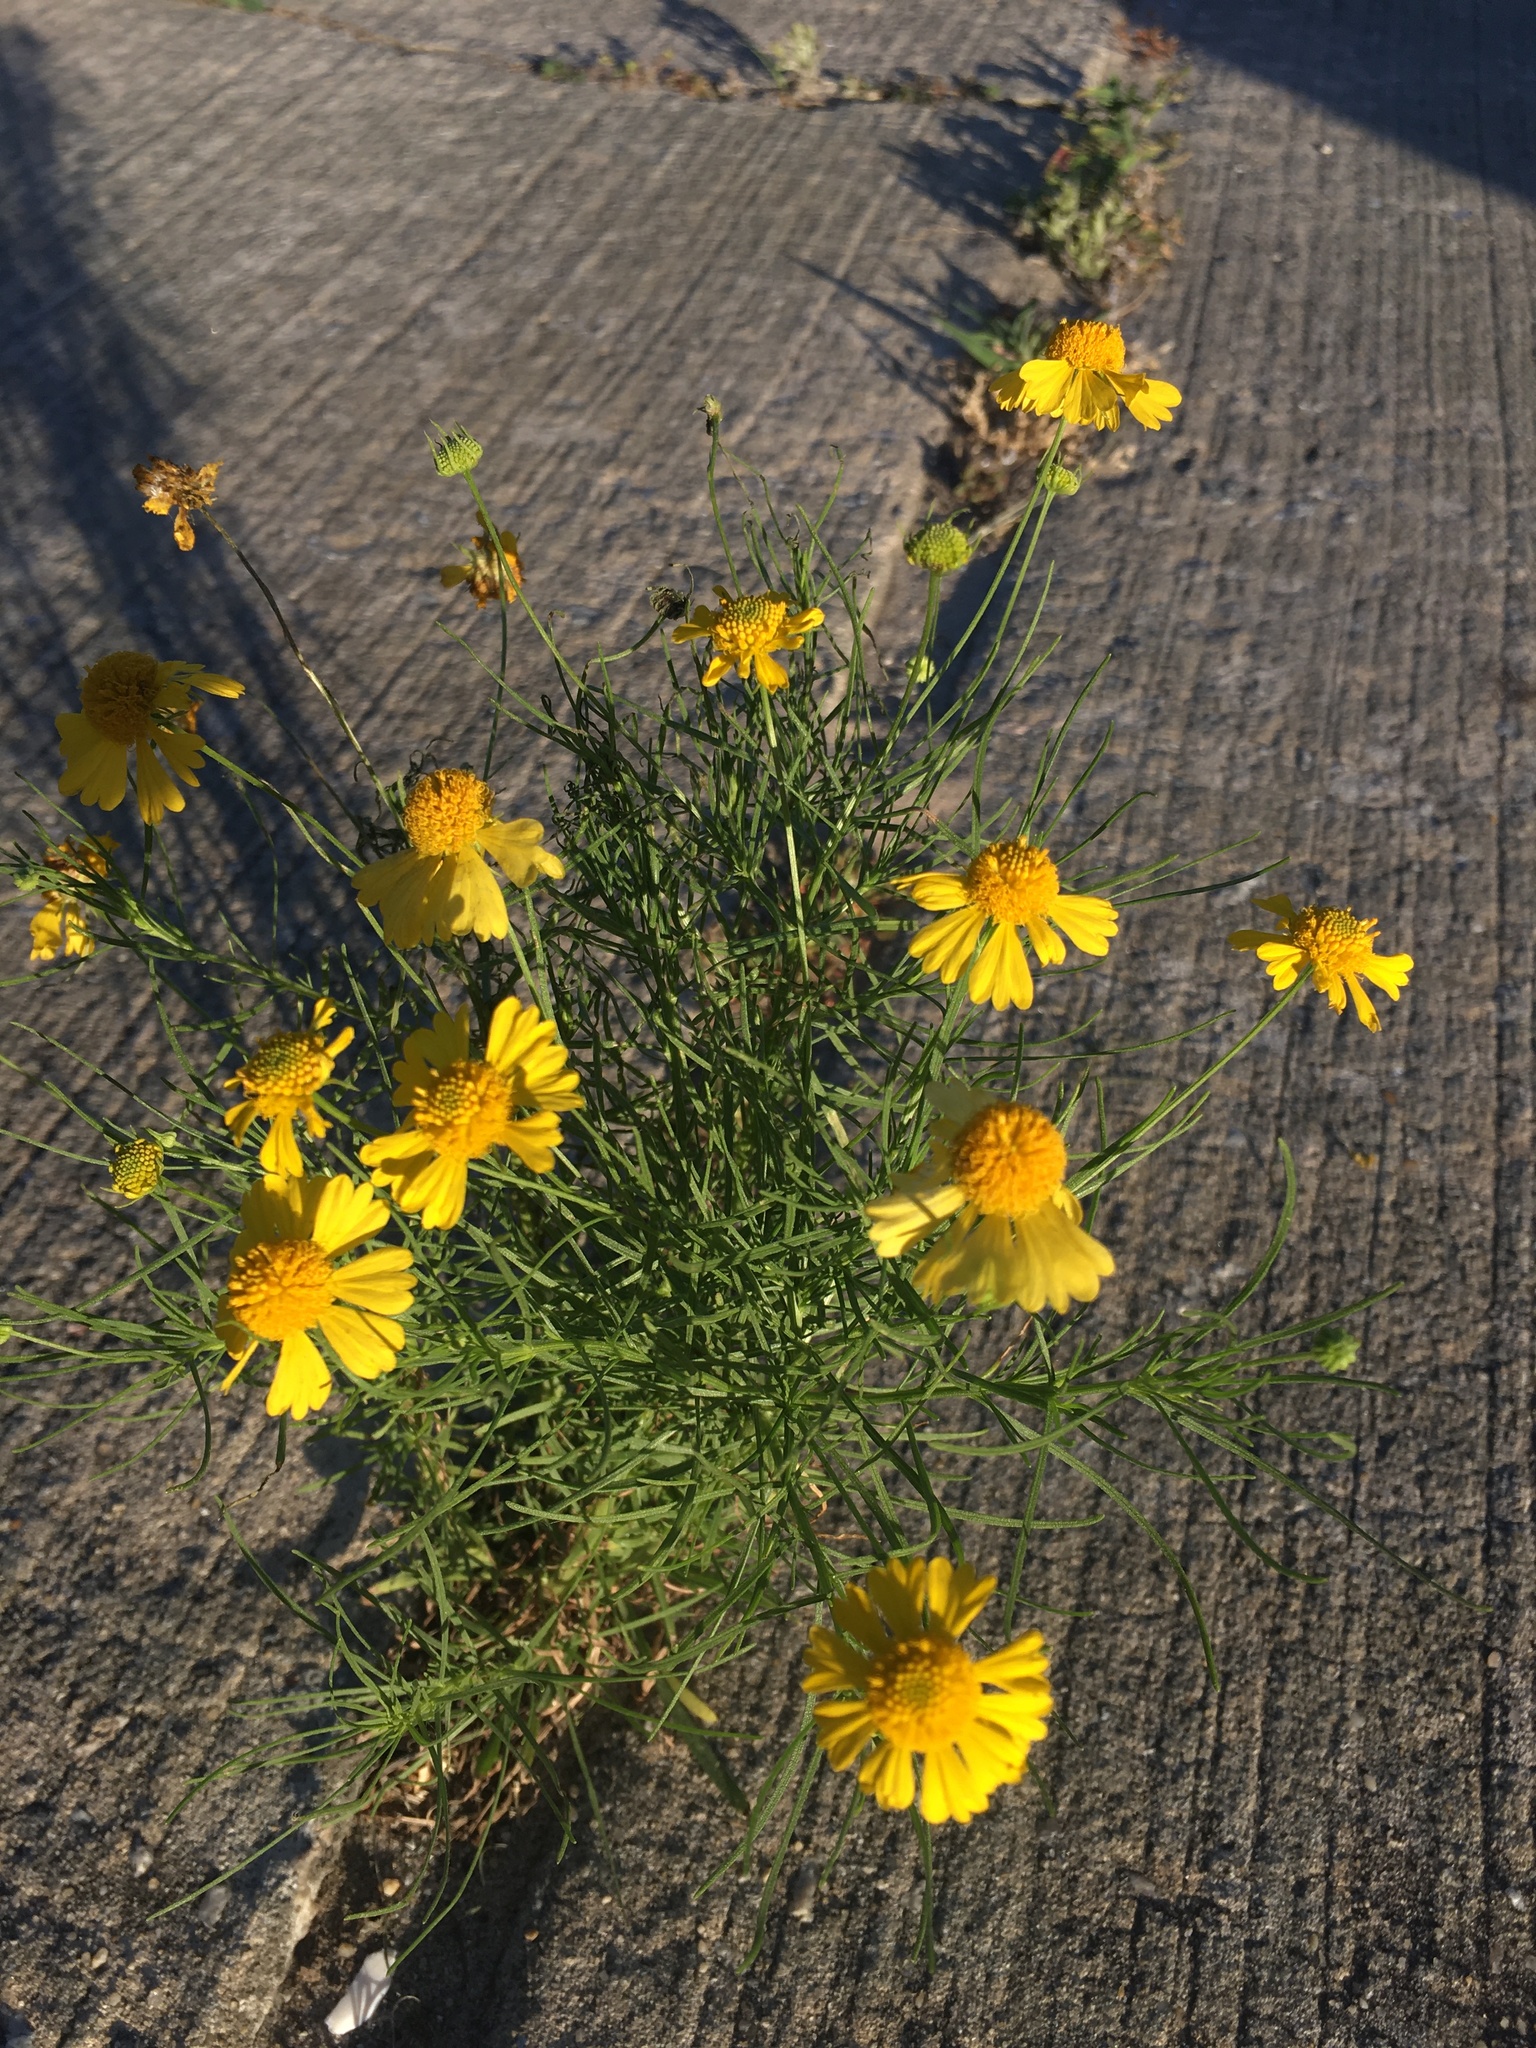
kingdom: Plantae
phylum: Tracheophyta
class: Magnoliopsida
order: Asterales
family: Asteraceae
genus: Helenium
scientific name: Helenium amarum
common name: Bitter sneezeweed
